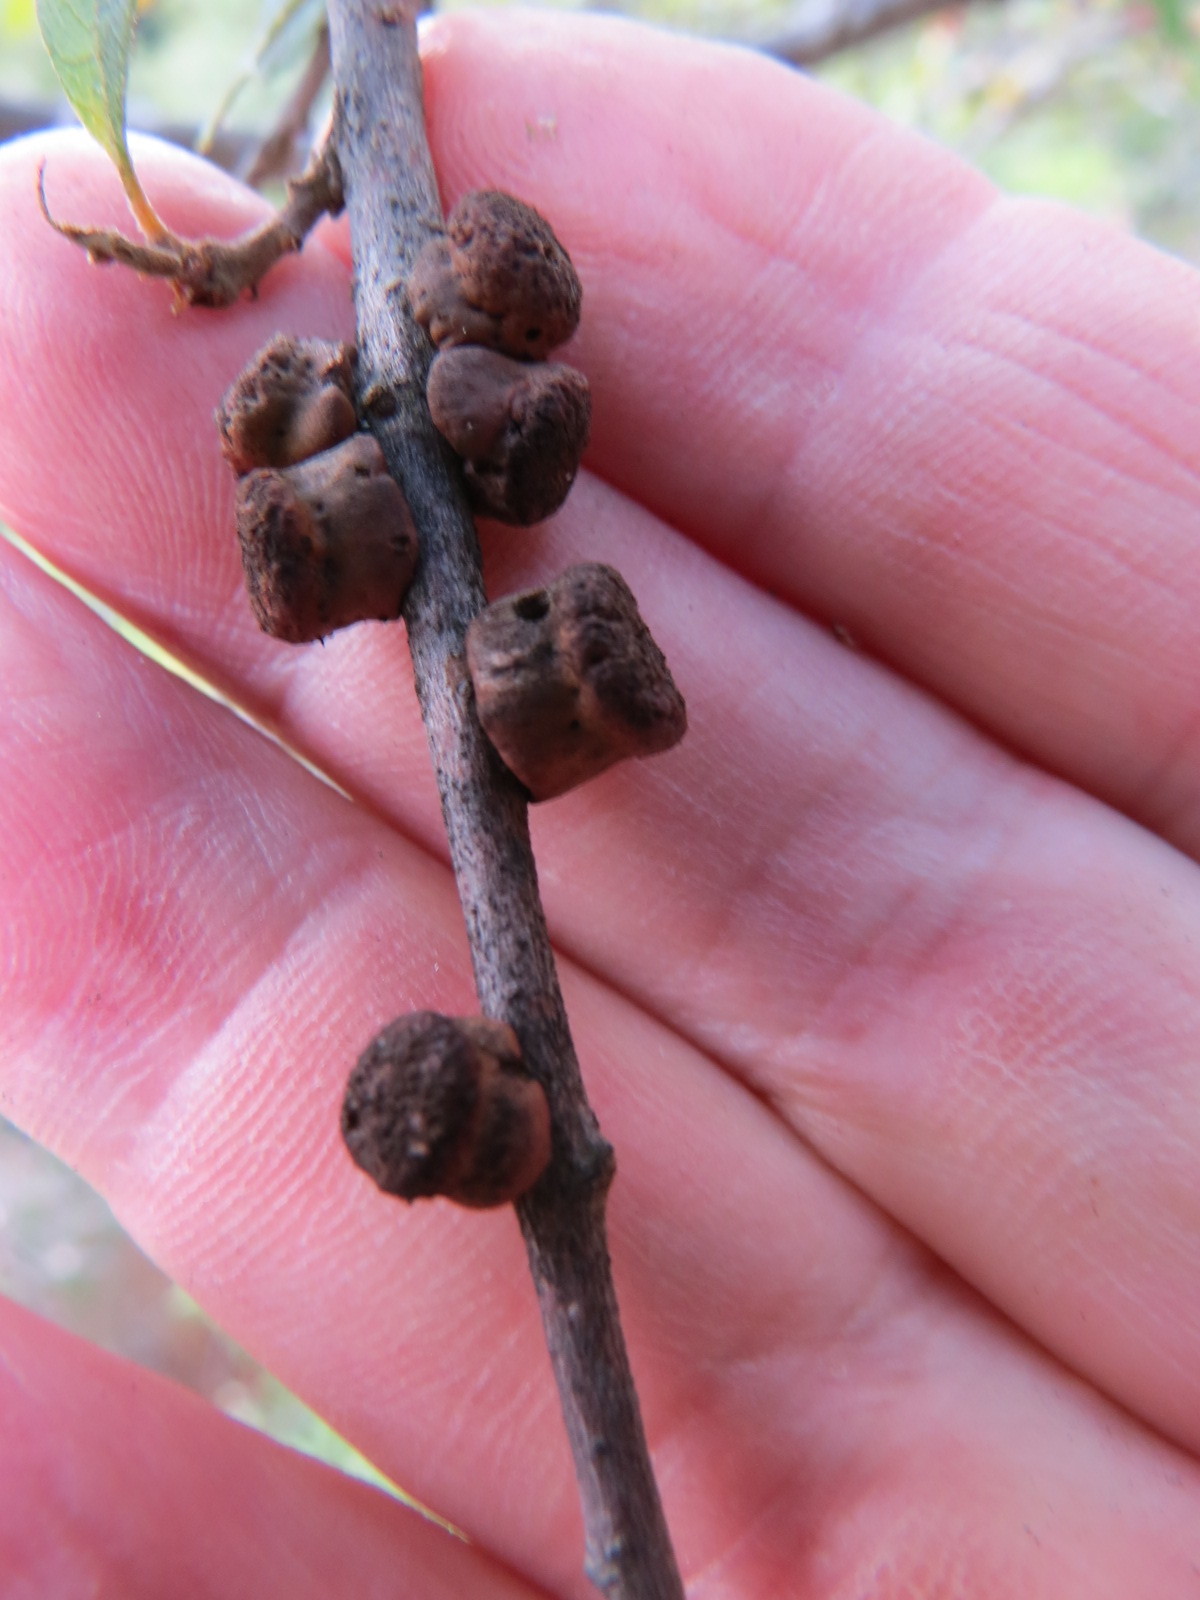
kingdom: Animalia
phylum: Arthropoda
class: Insecta
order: Hymenoptera
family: Cynipidae
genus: Disholcaspis
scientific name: Disholcaspis
